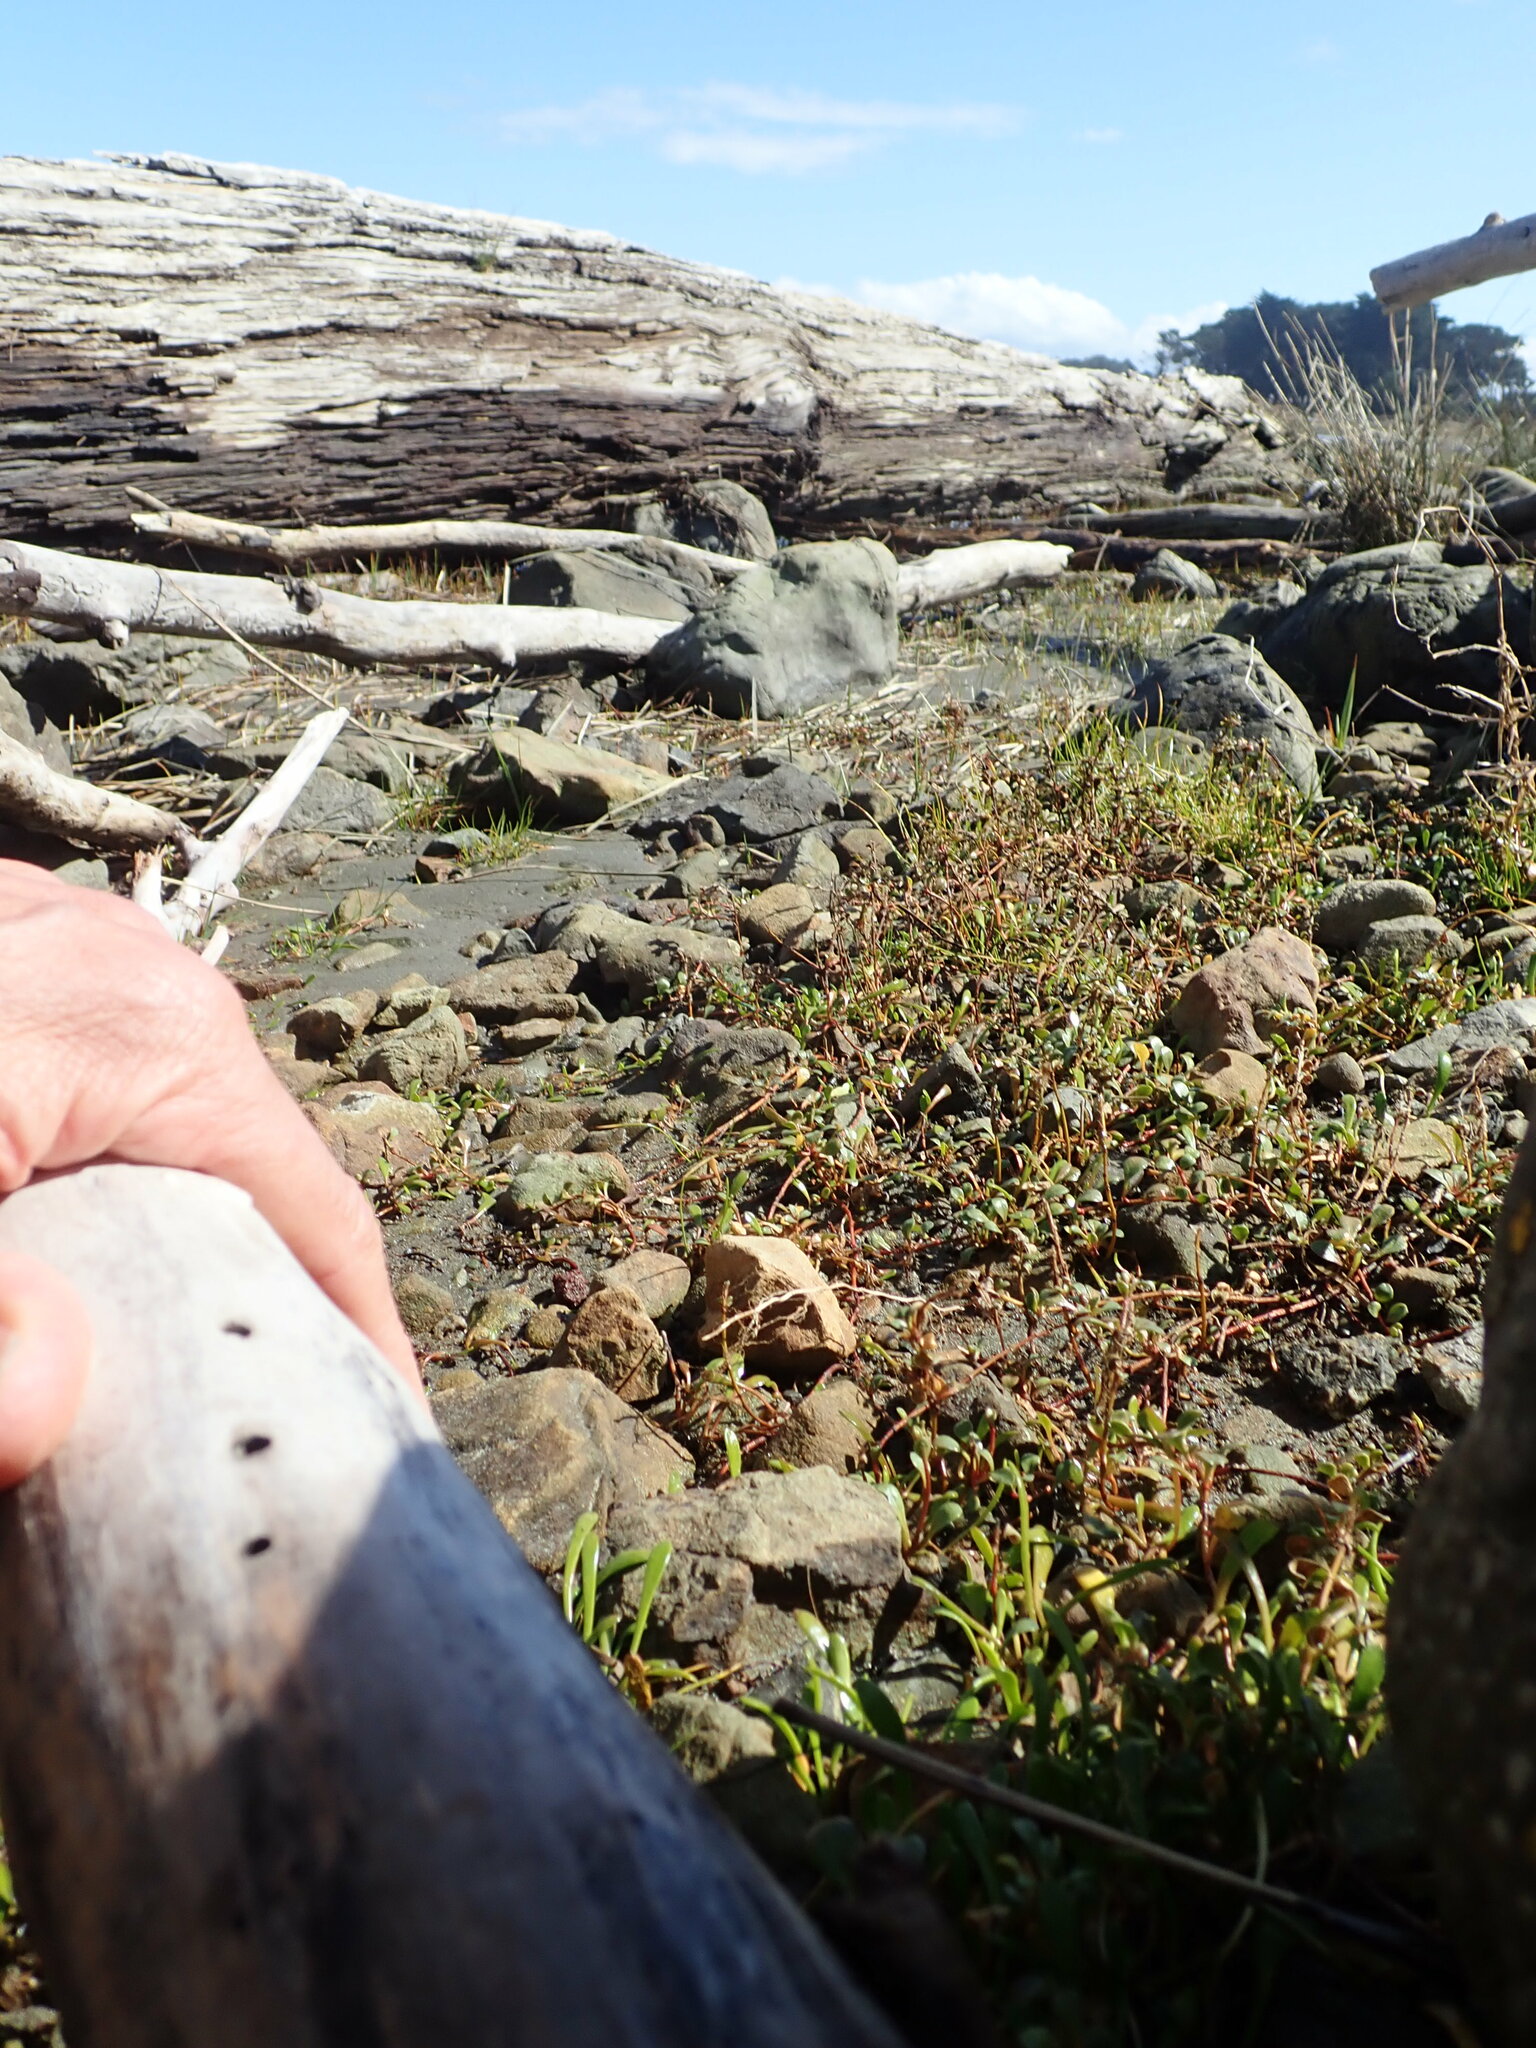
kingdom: Plantae
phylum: Tracheophyta
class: Magnoliopsida
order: Asterales
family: Goodeniaceae
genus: Goodenia
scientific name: Goodenia radicans
